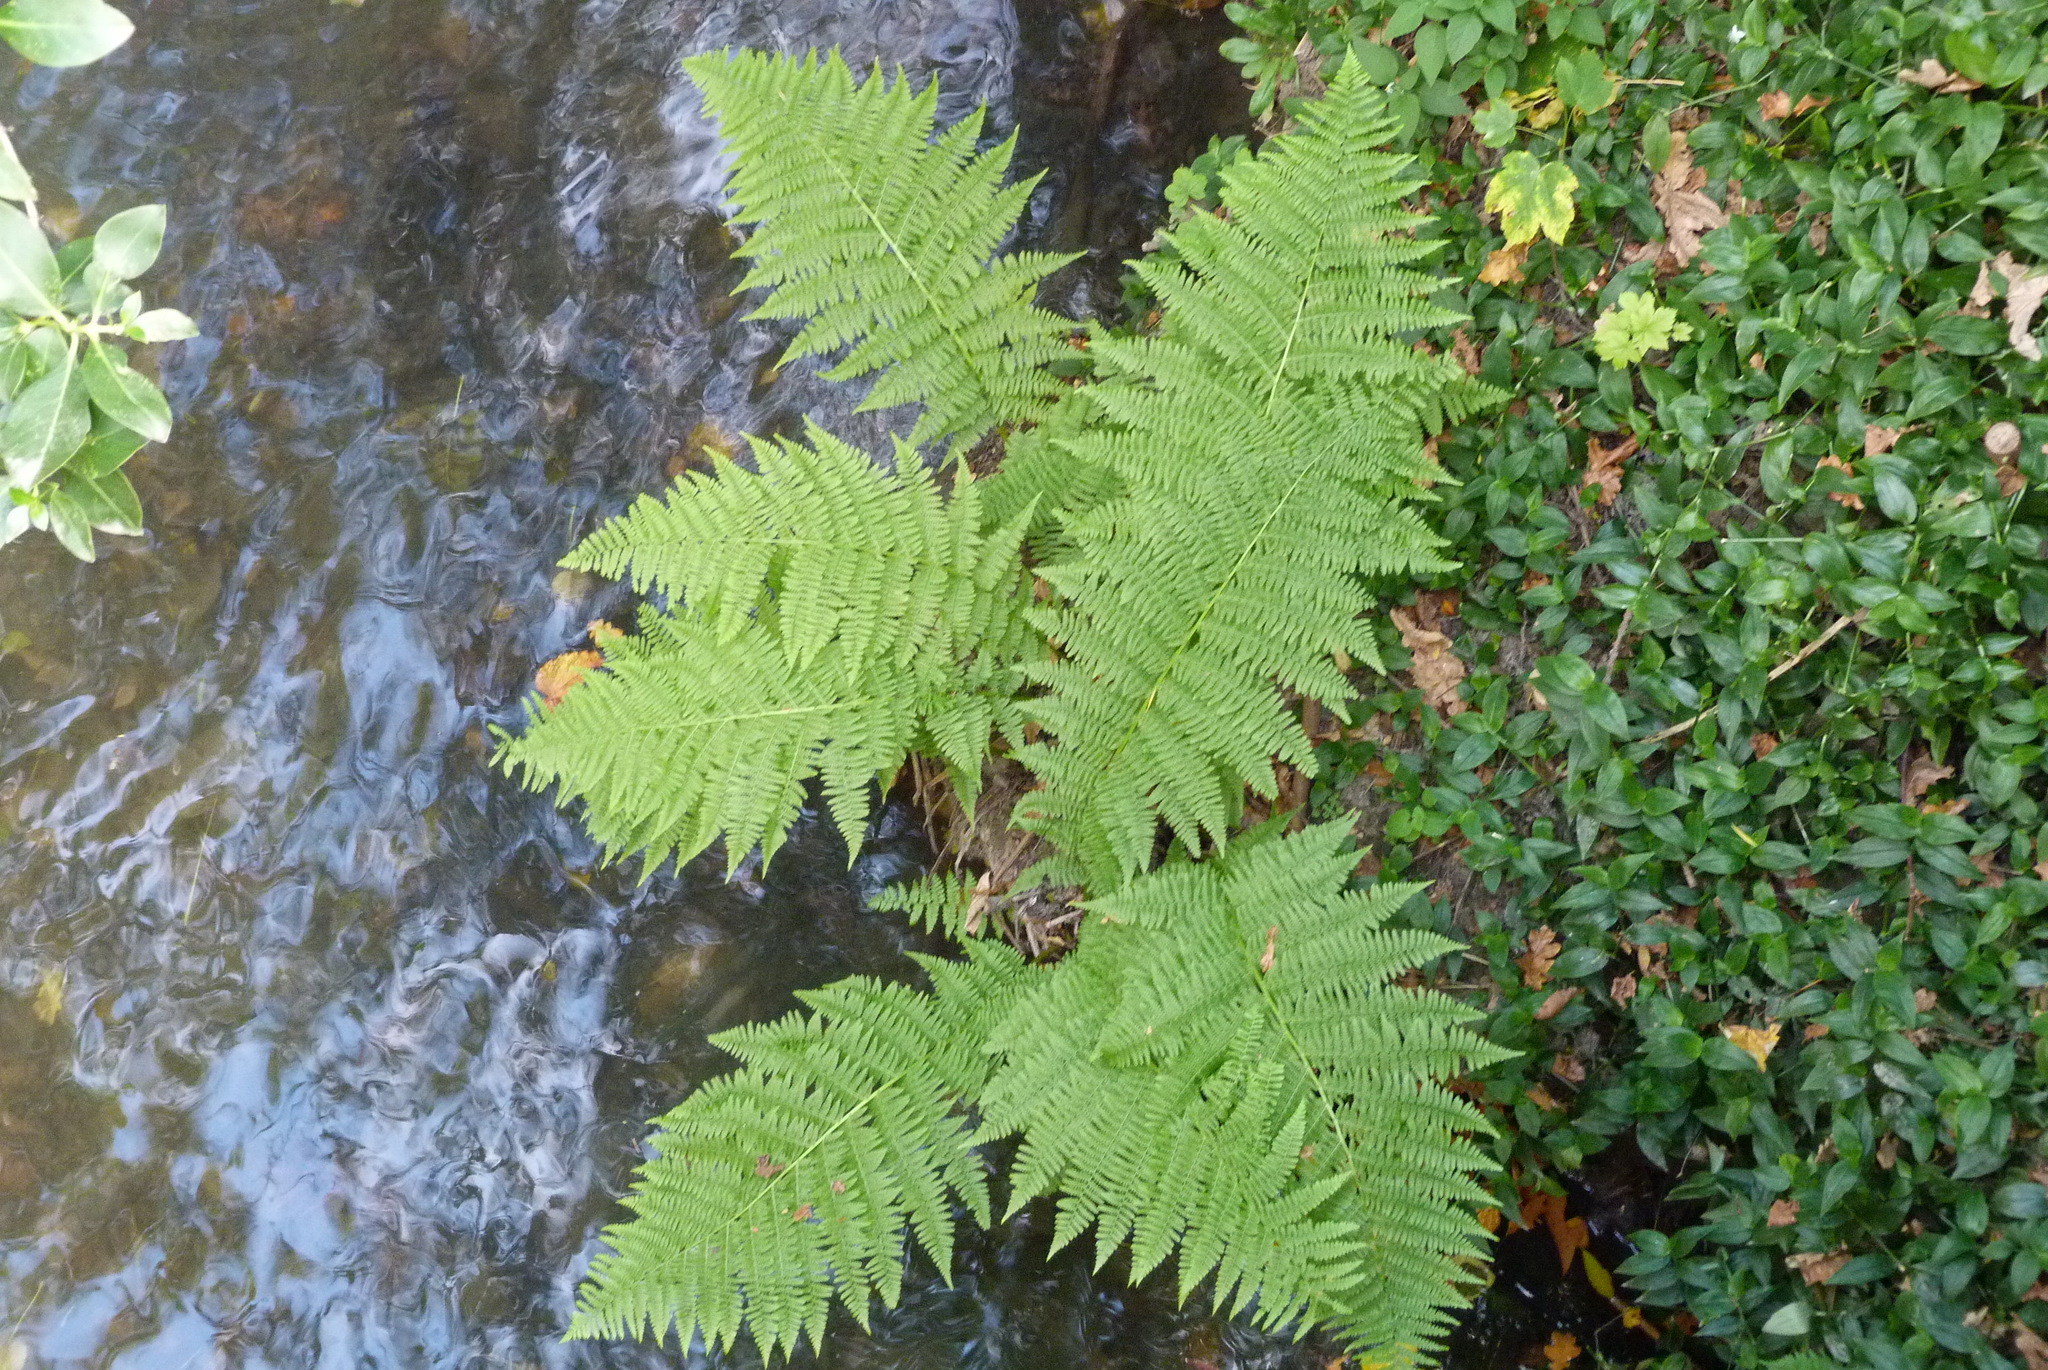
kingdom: Plantae
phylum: Tracheophyta
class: Polypodiopsida
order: Polypodiales
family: Athyriaceae
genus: Athyrium
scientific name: Athyrium filix-femina
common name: Lady fern
